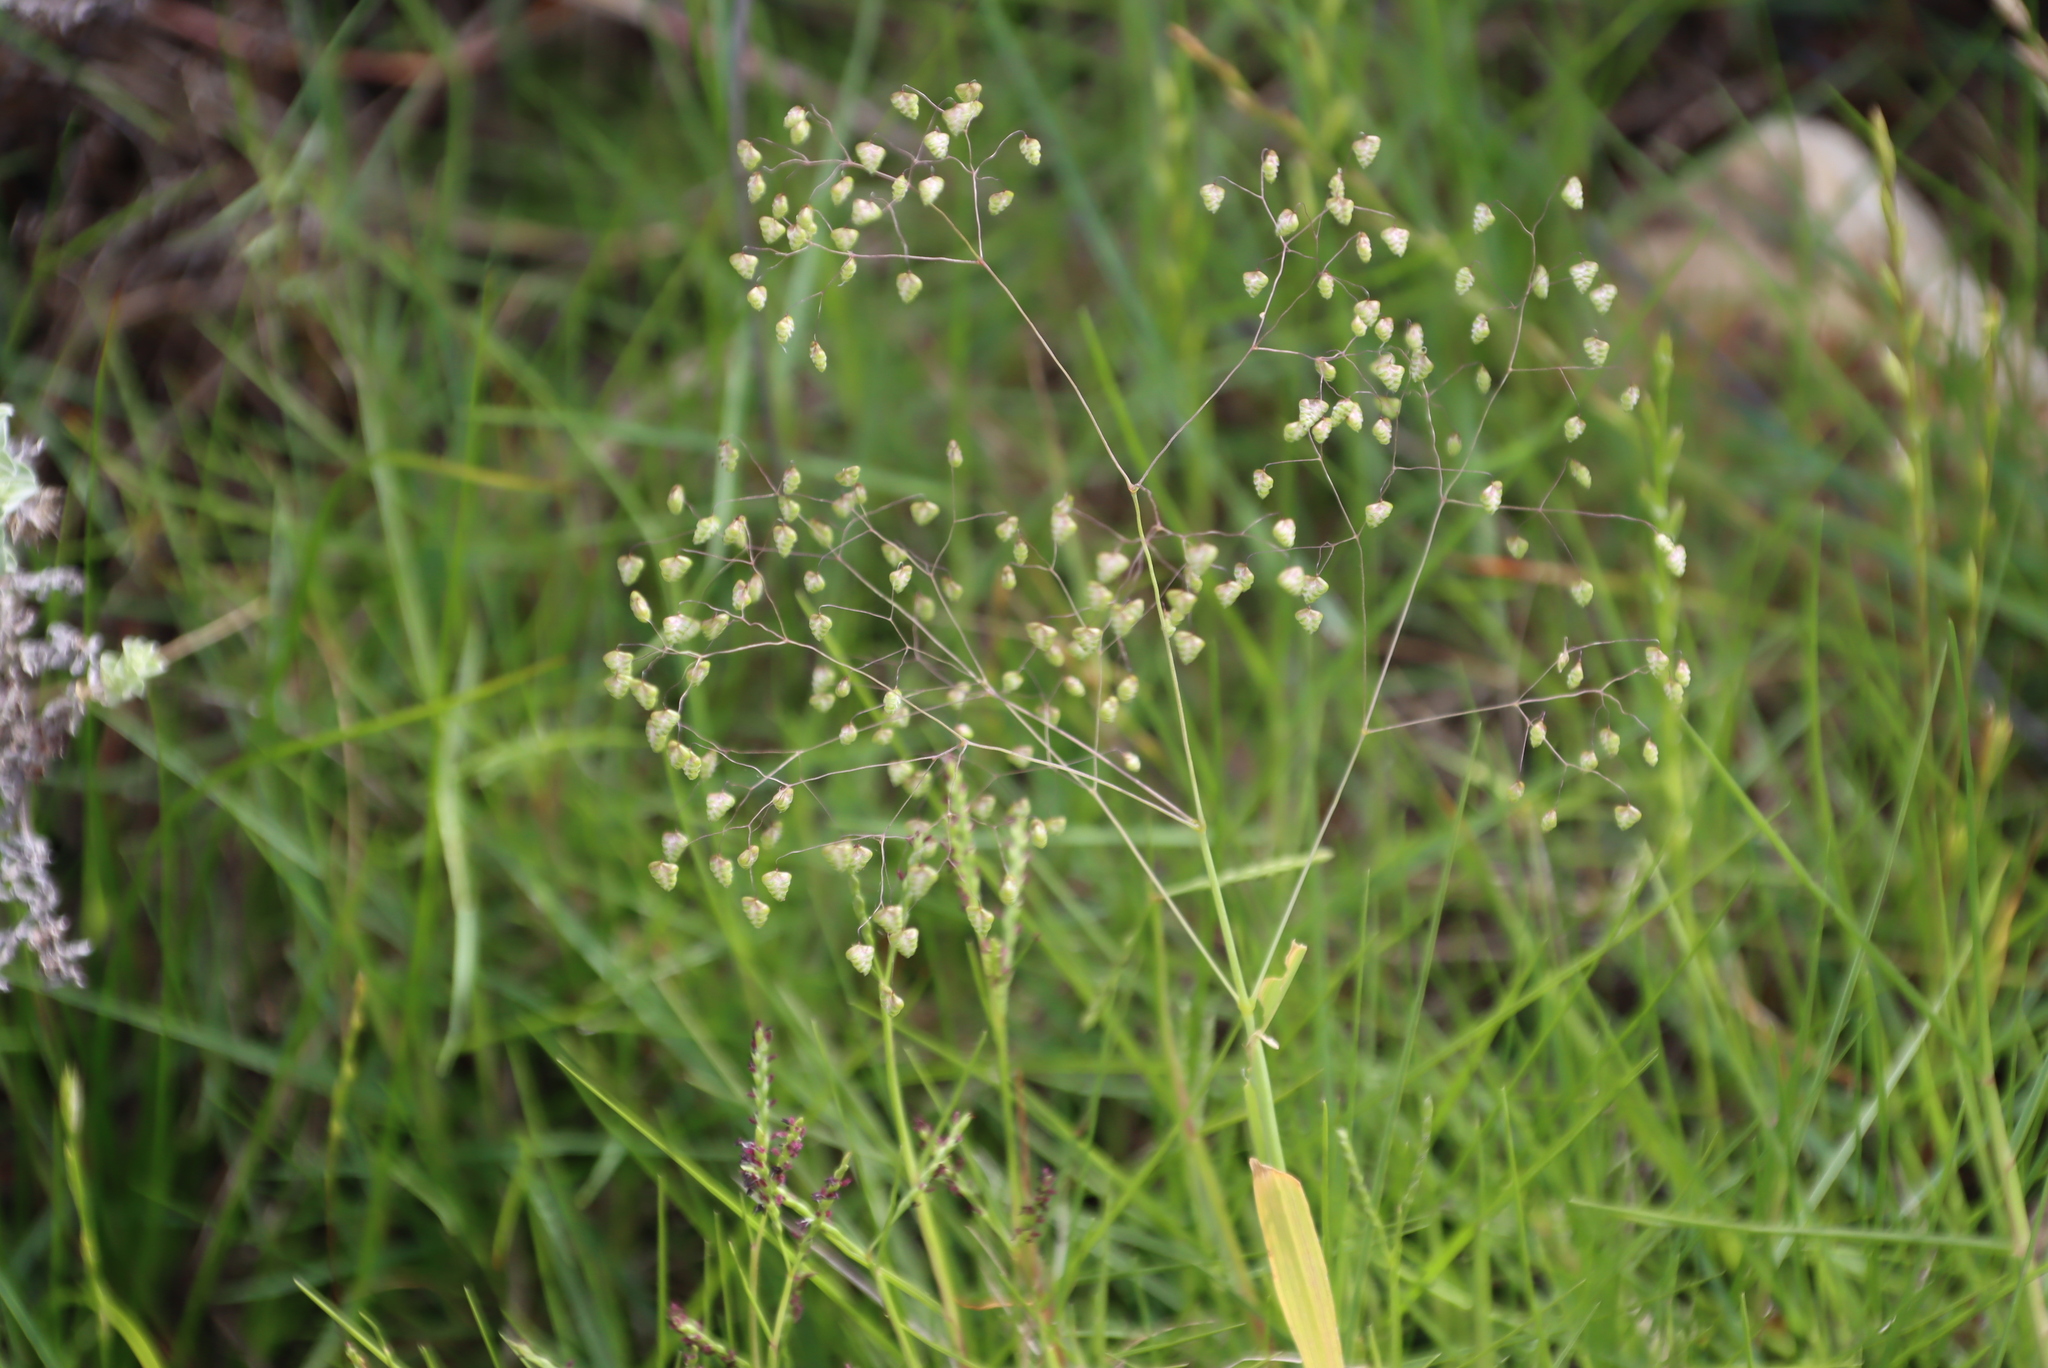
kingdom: Plantae
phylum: Tracheophyta
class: Liliopsida
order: Poales
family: Poaceae
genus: Briza
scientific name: Briza minor
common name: Lesser quaking-grass
